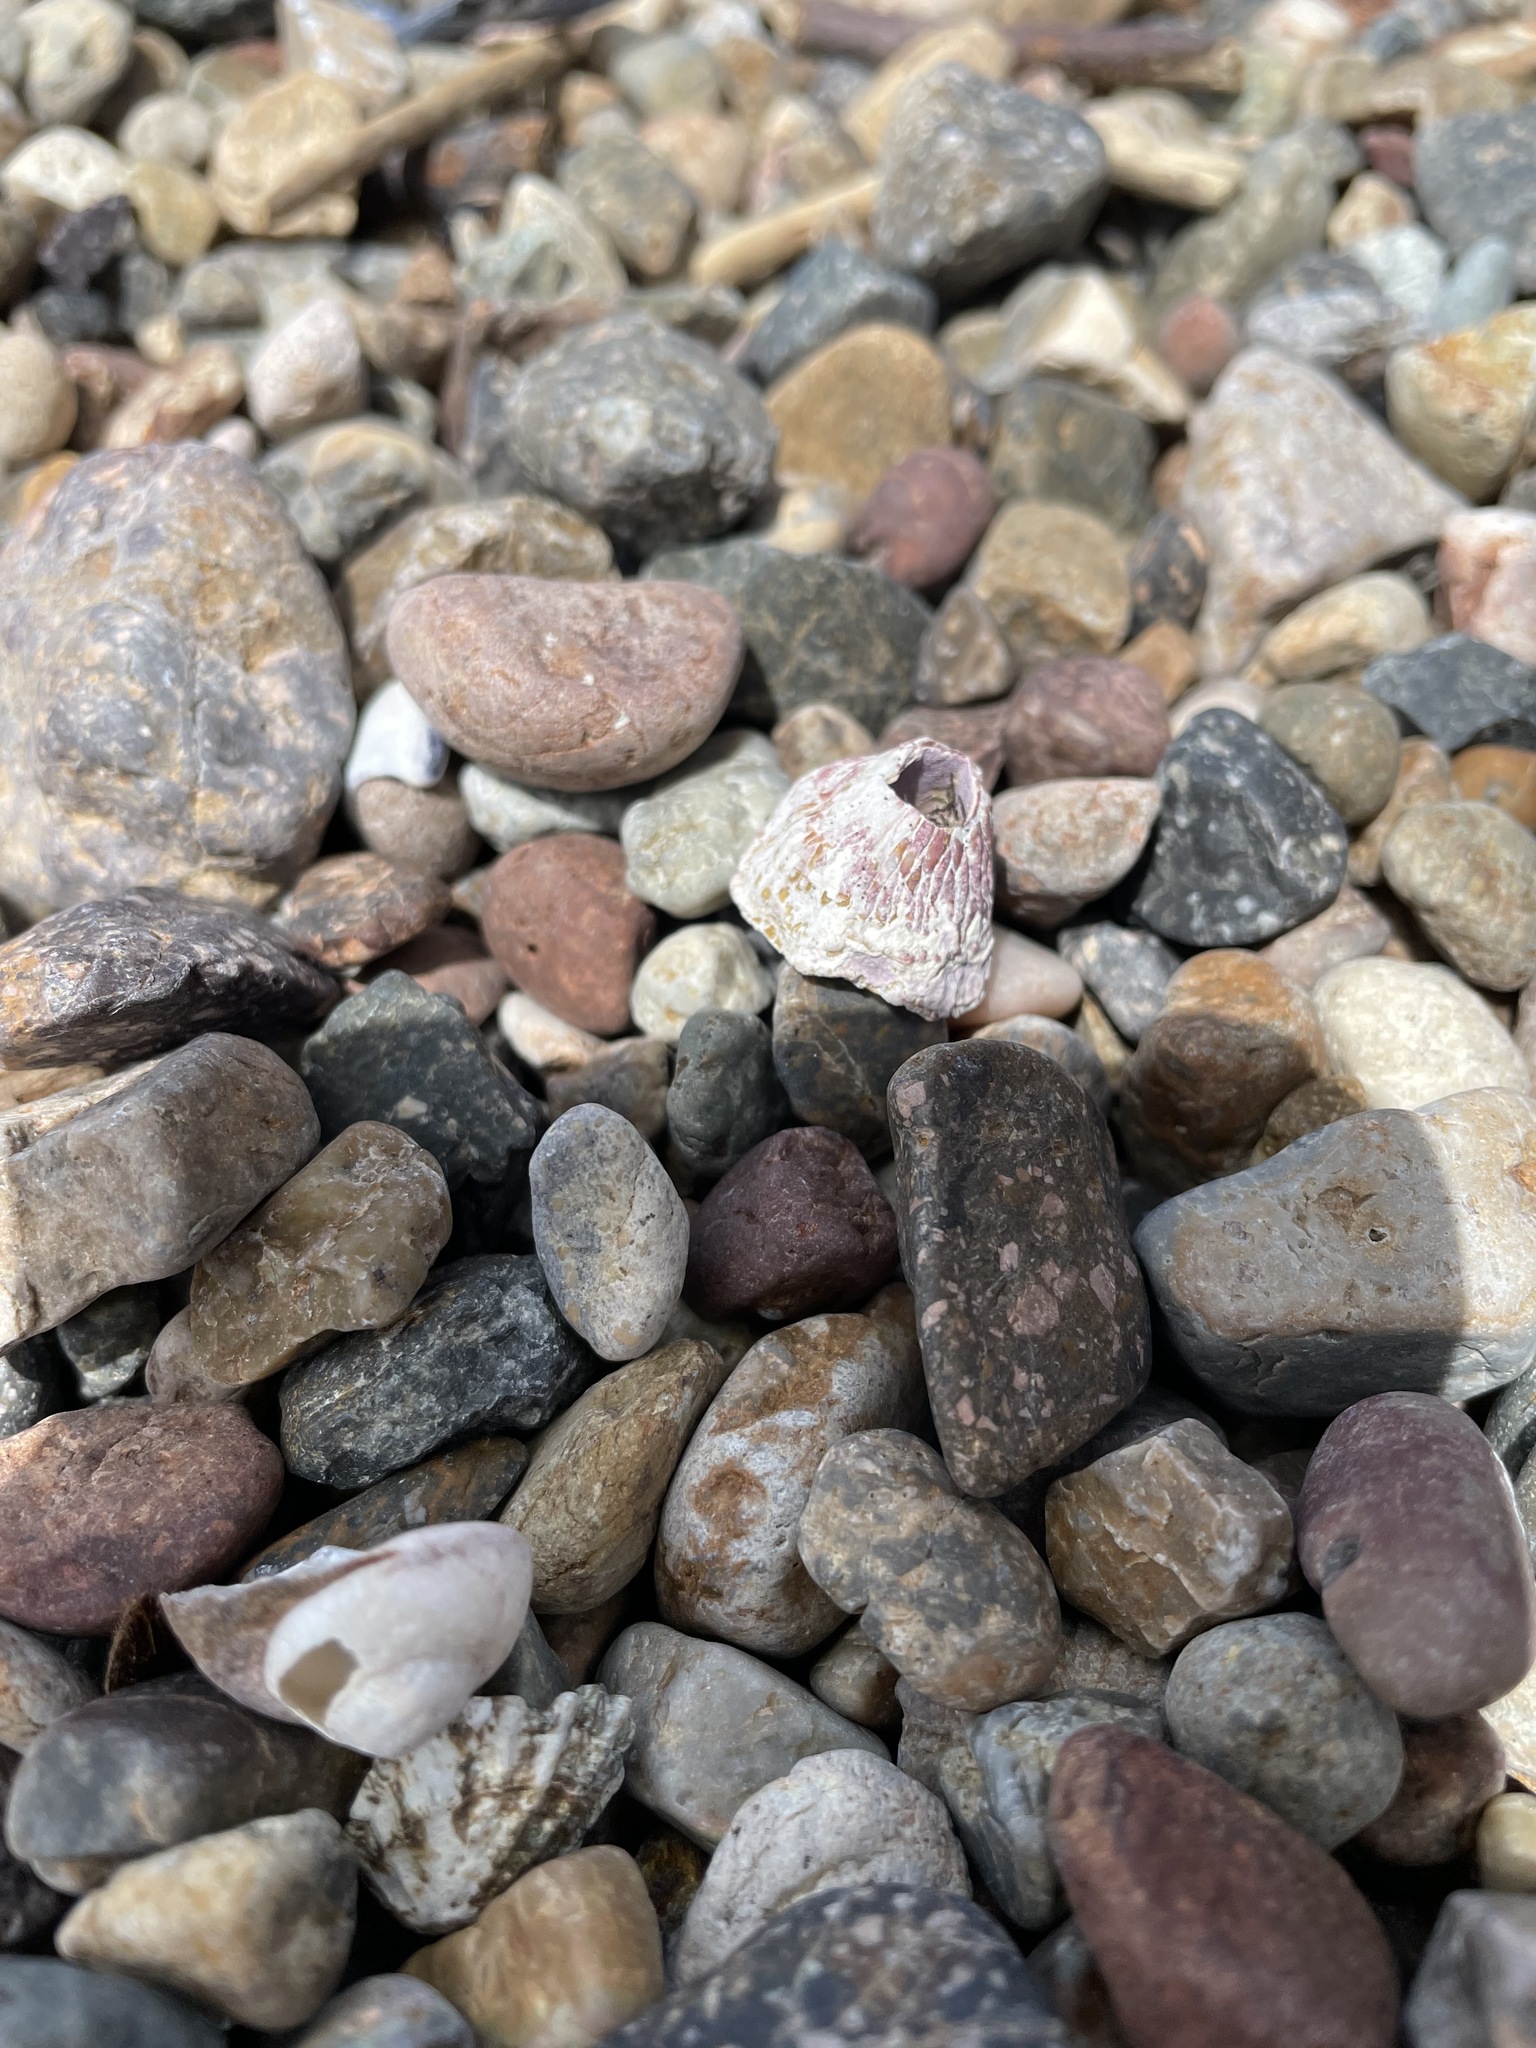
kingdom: Animalia
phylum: Arthropoda
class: Maxillopoda
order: Sessilia
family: Tetraclitidae
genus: Tetraclita
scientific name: Tetraclita rubescens
